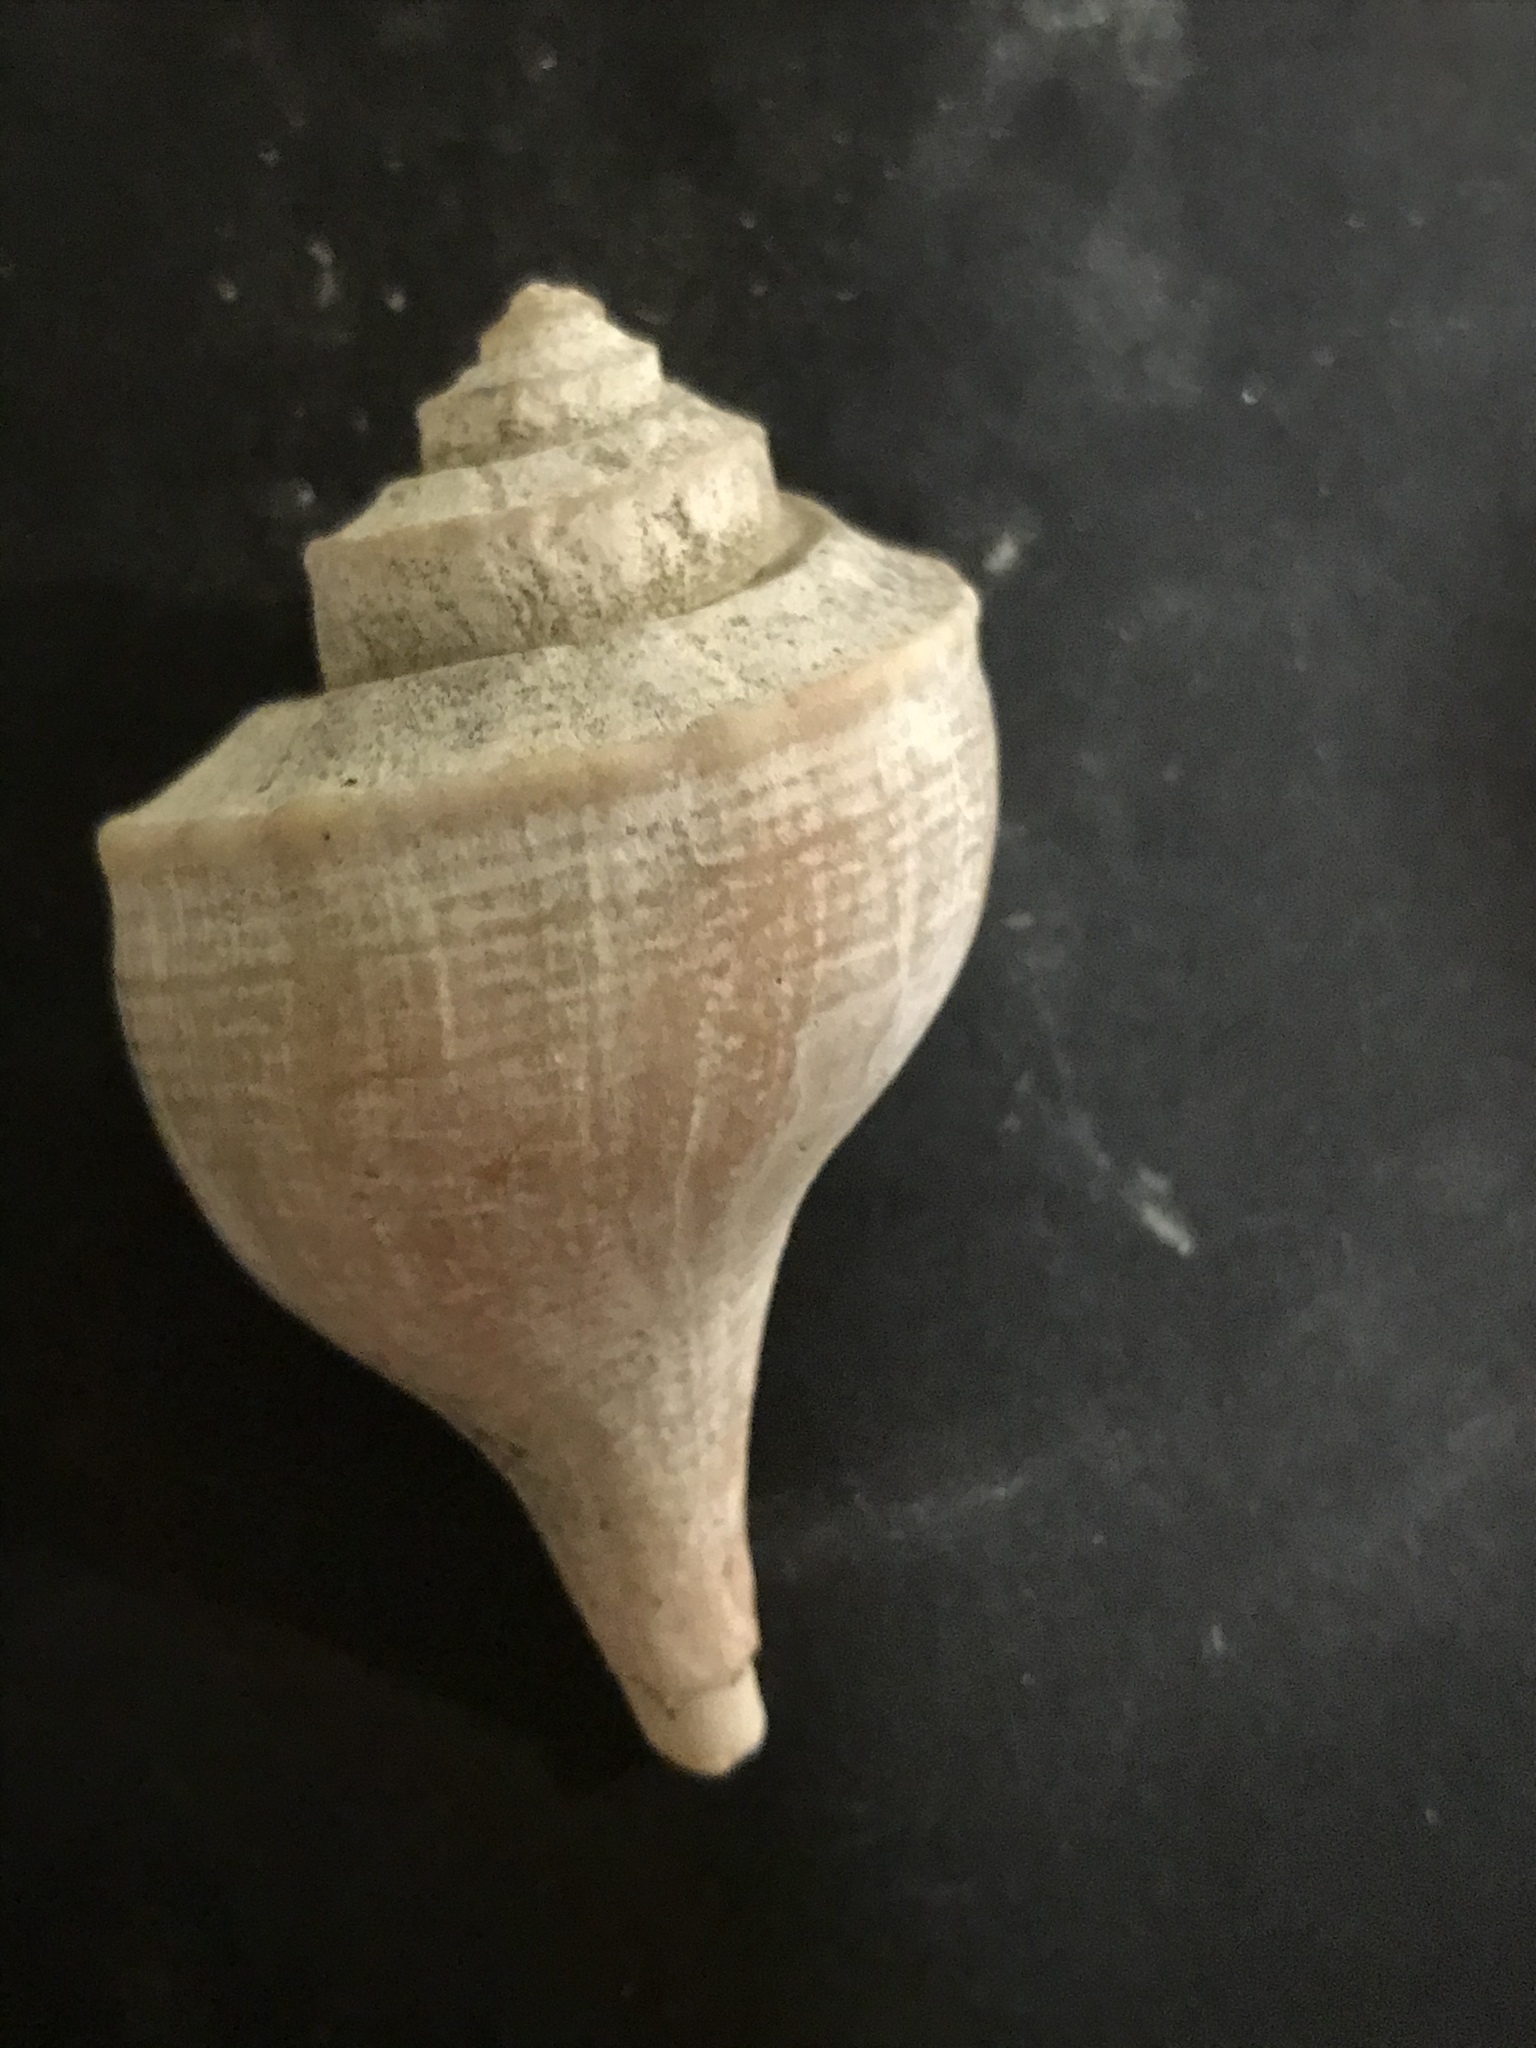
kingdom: Animalia
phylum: Mollusca
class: Gastropoda
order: Neogastropoda
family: Busyconidae
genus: Busycotypus
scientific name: Busycotypus canaliculatus
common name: Channeled whelk
